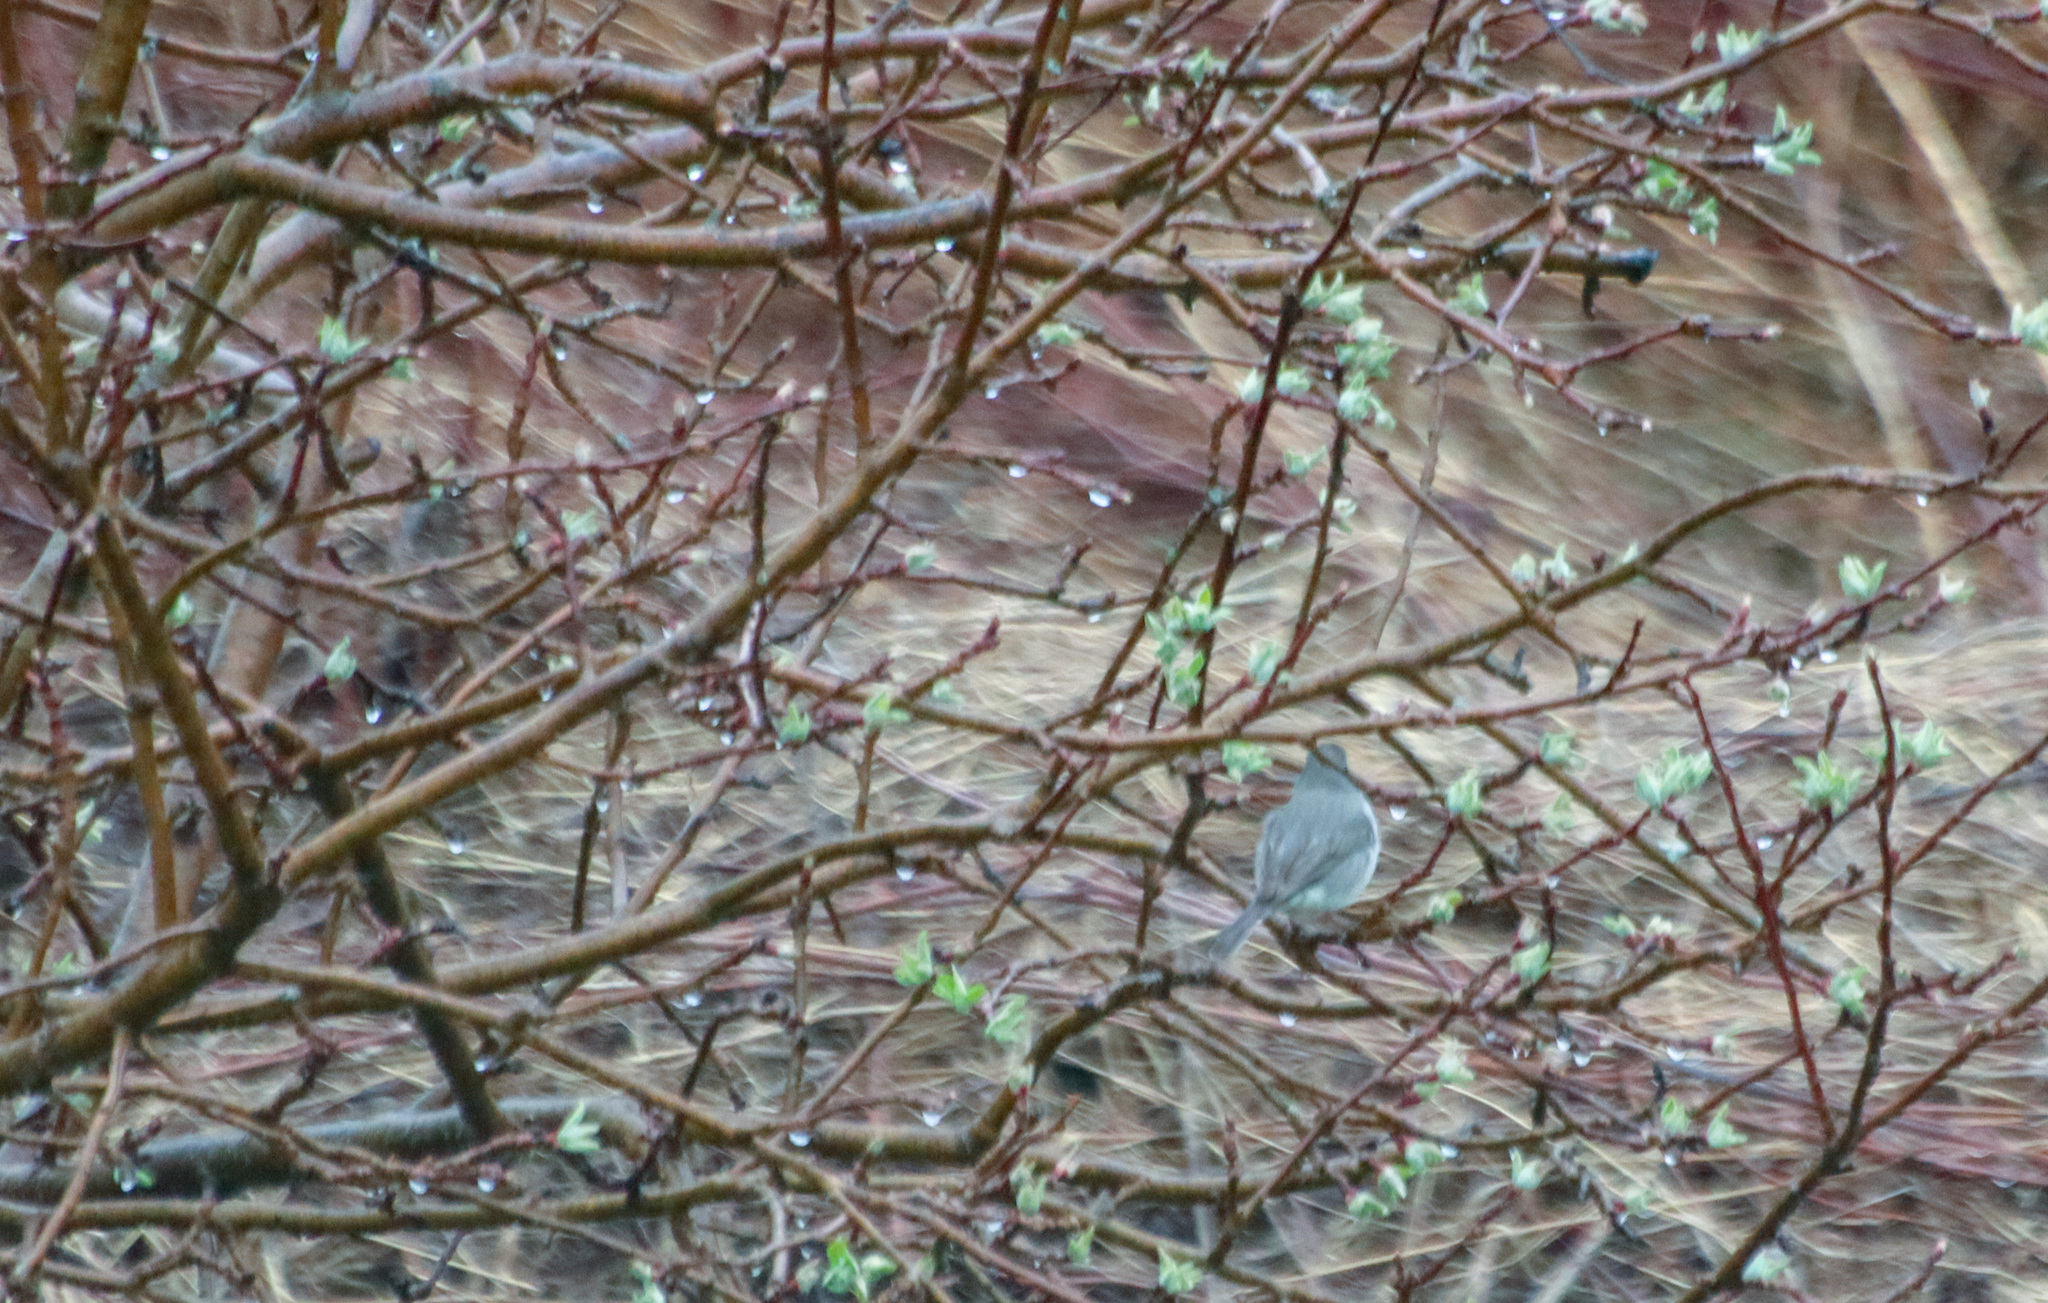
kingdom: Animalia
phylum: Chordata
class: Aves
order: Passeriformes
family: Passerellidae
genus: Junco
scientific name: Junco hyemalis
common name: Dark-eyed junco
